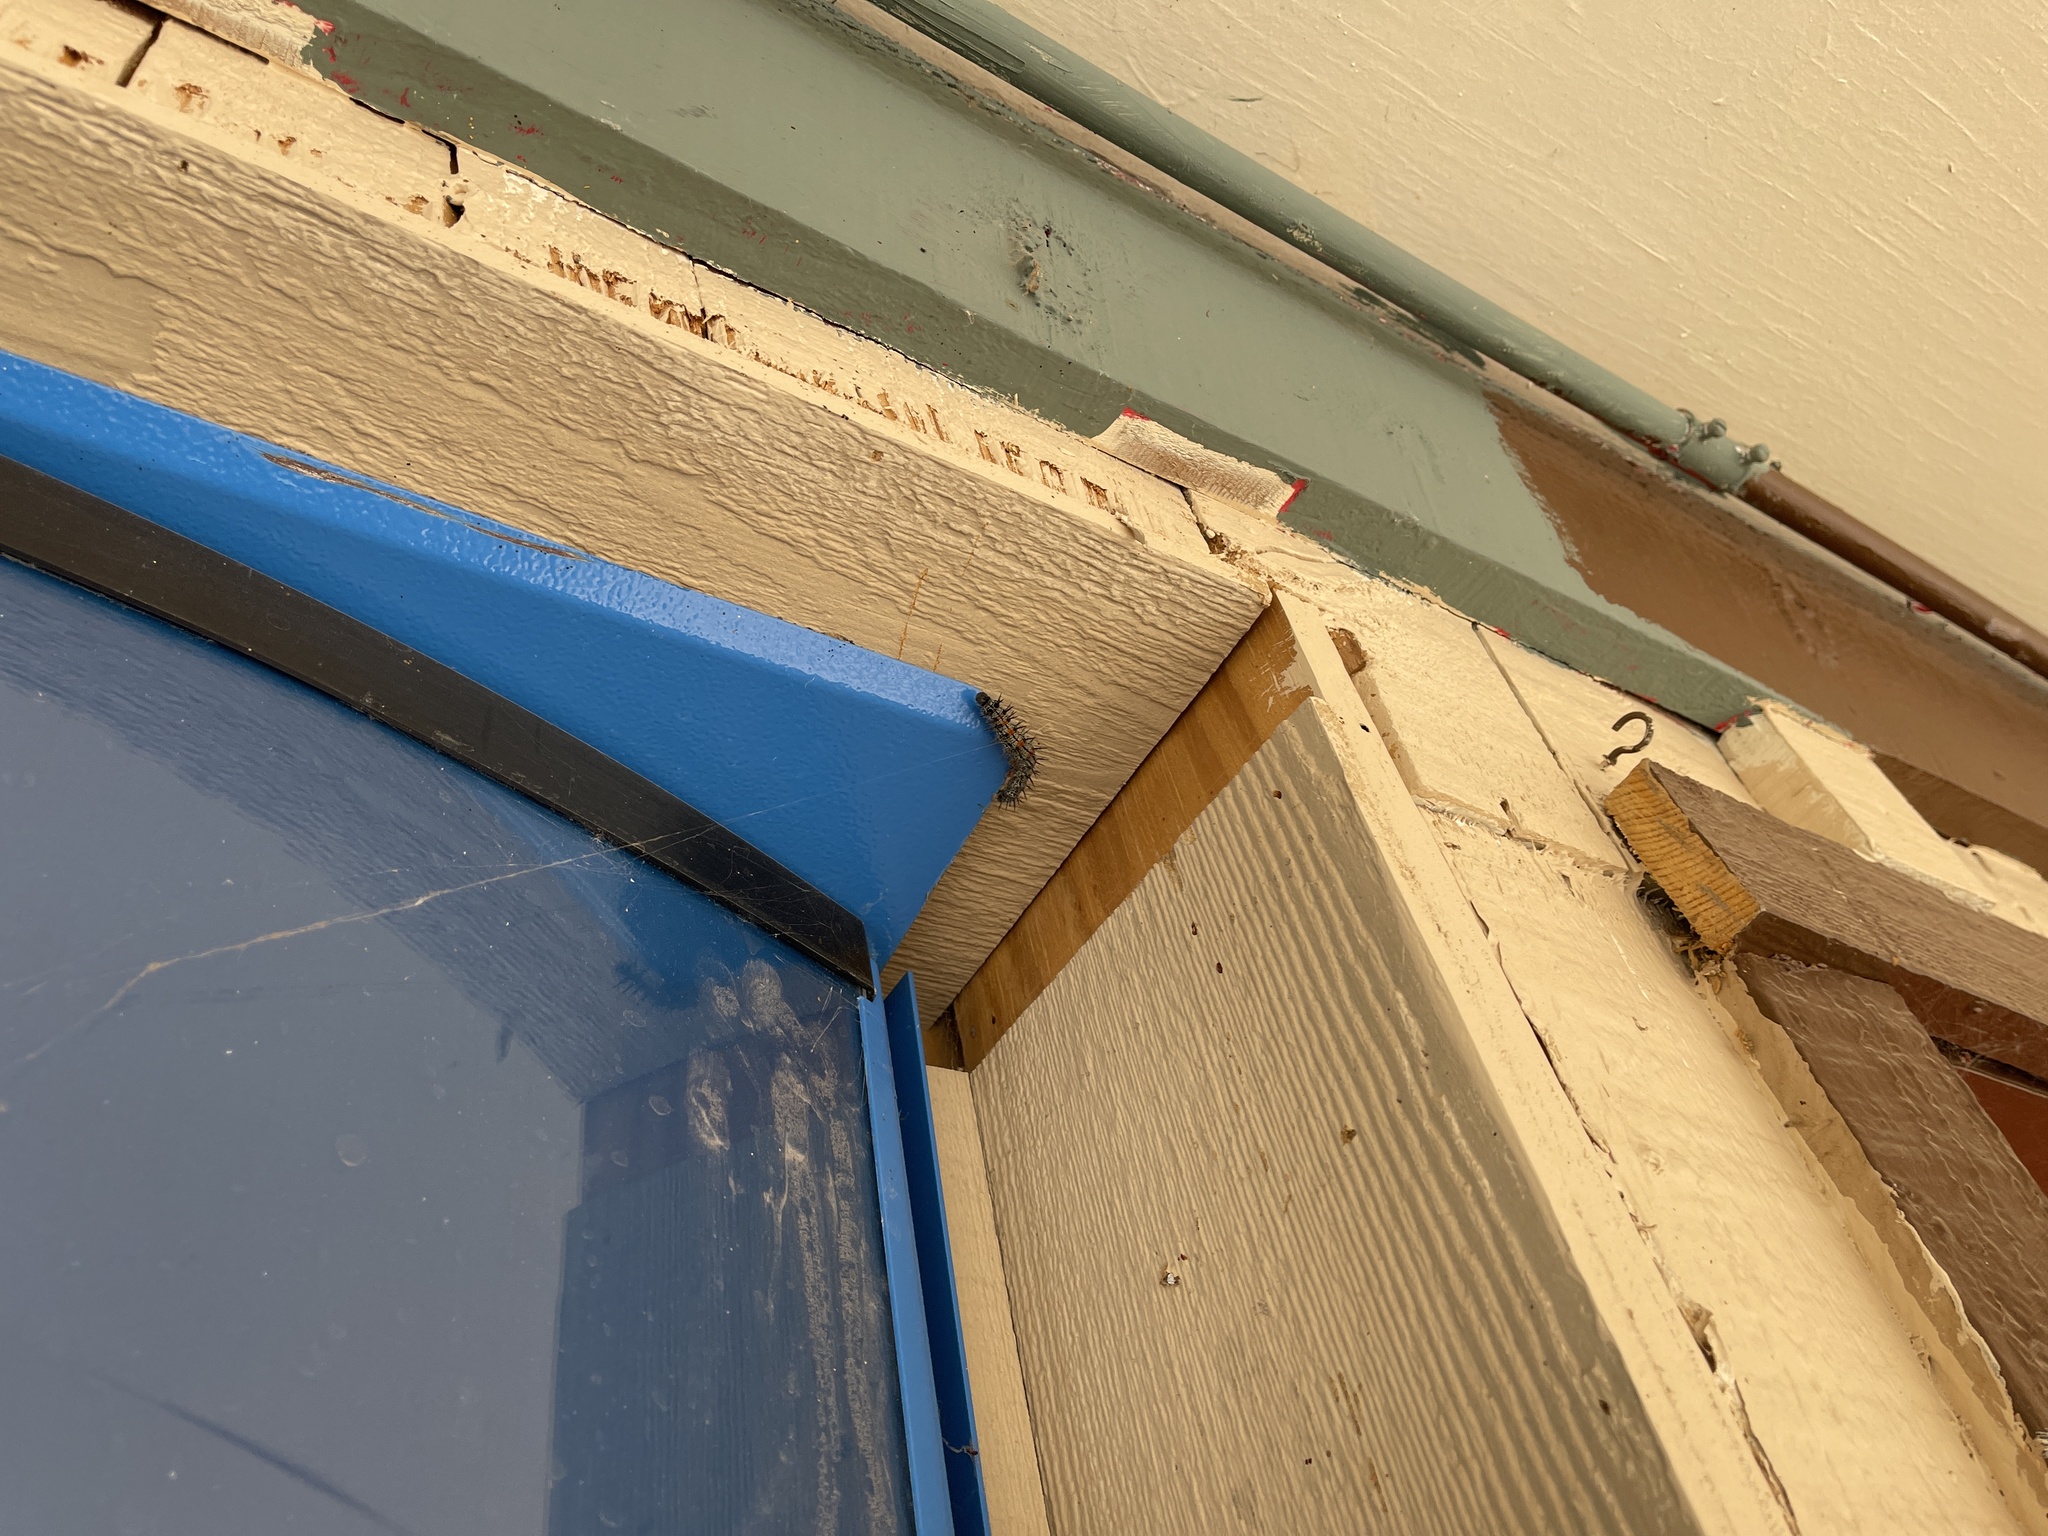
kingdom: Animalia
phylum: Arthropoda
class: Insecta
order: Lepidoptera
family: Nymphalidae
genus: Nymphalis
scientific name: Nymphalis antiopa
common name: Camberwell beauty
